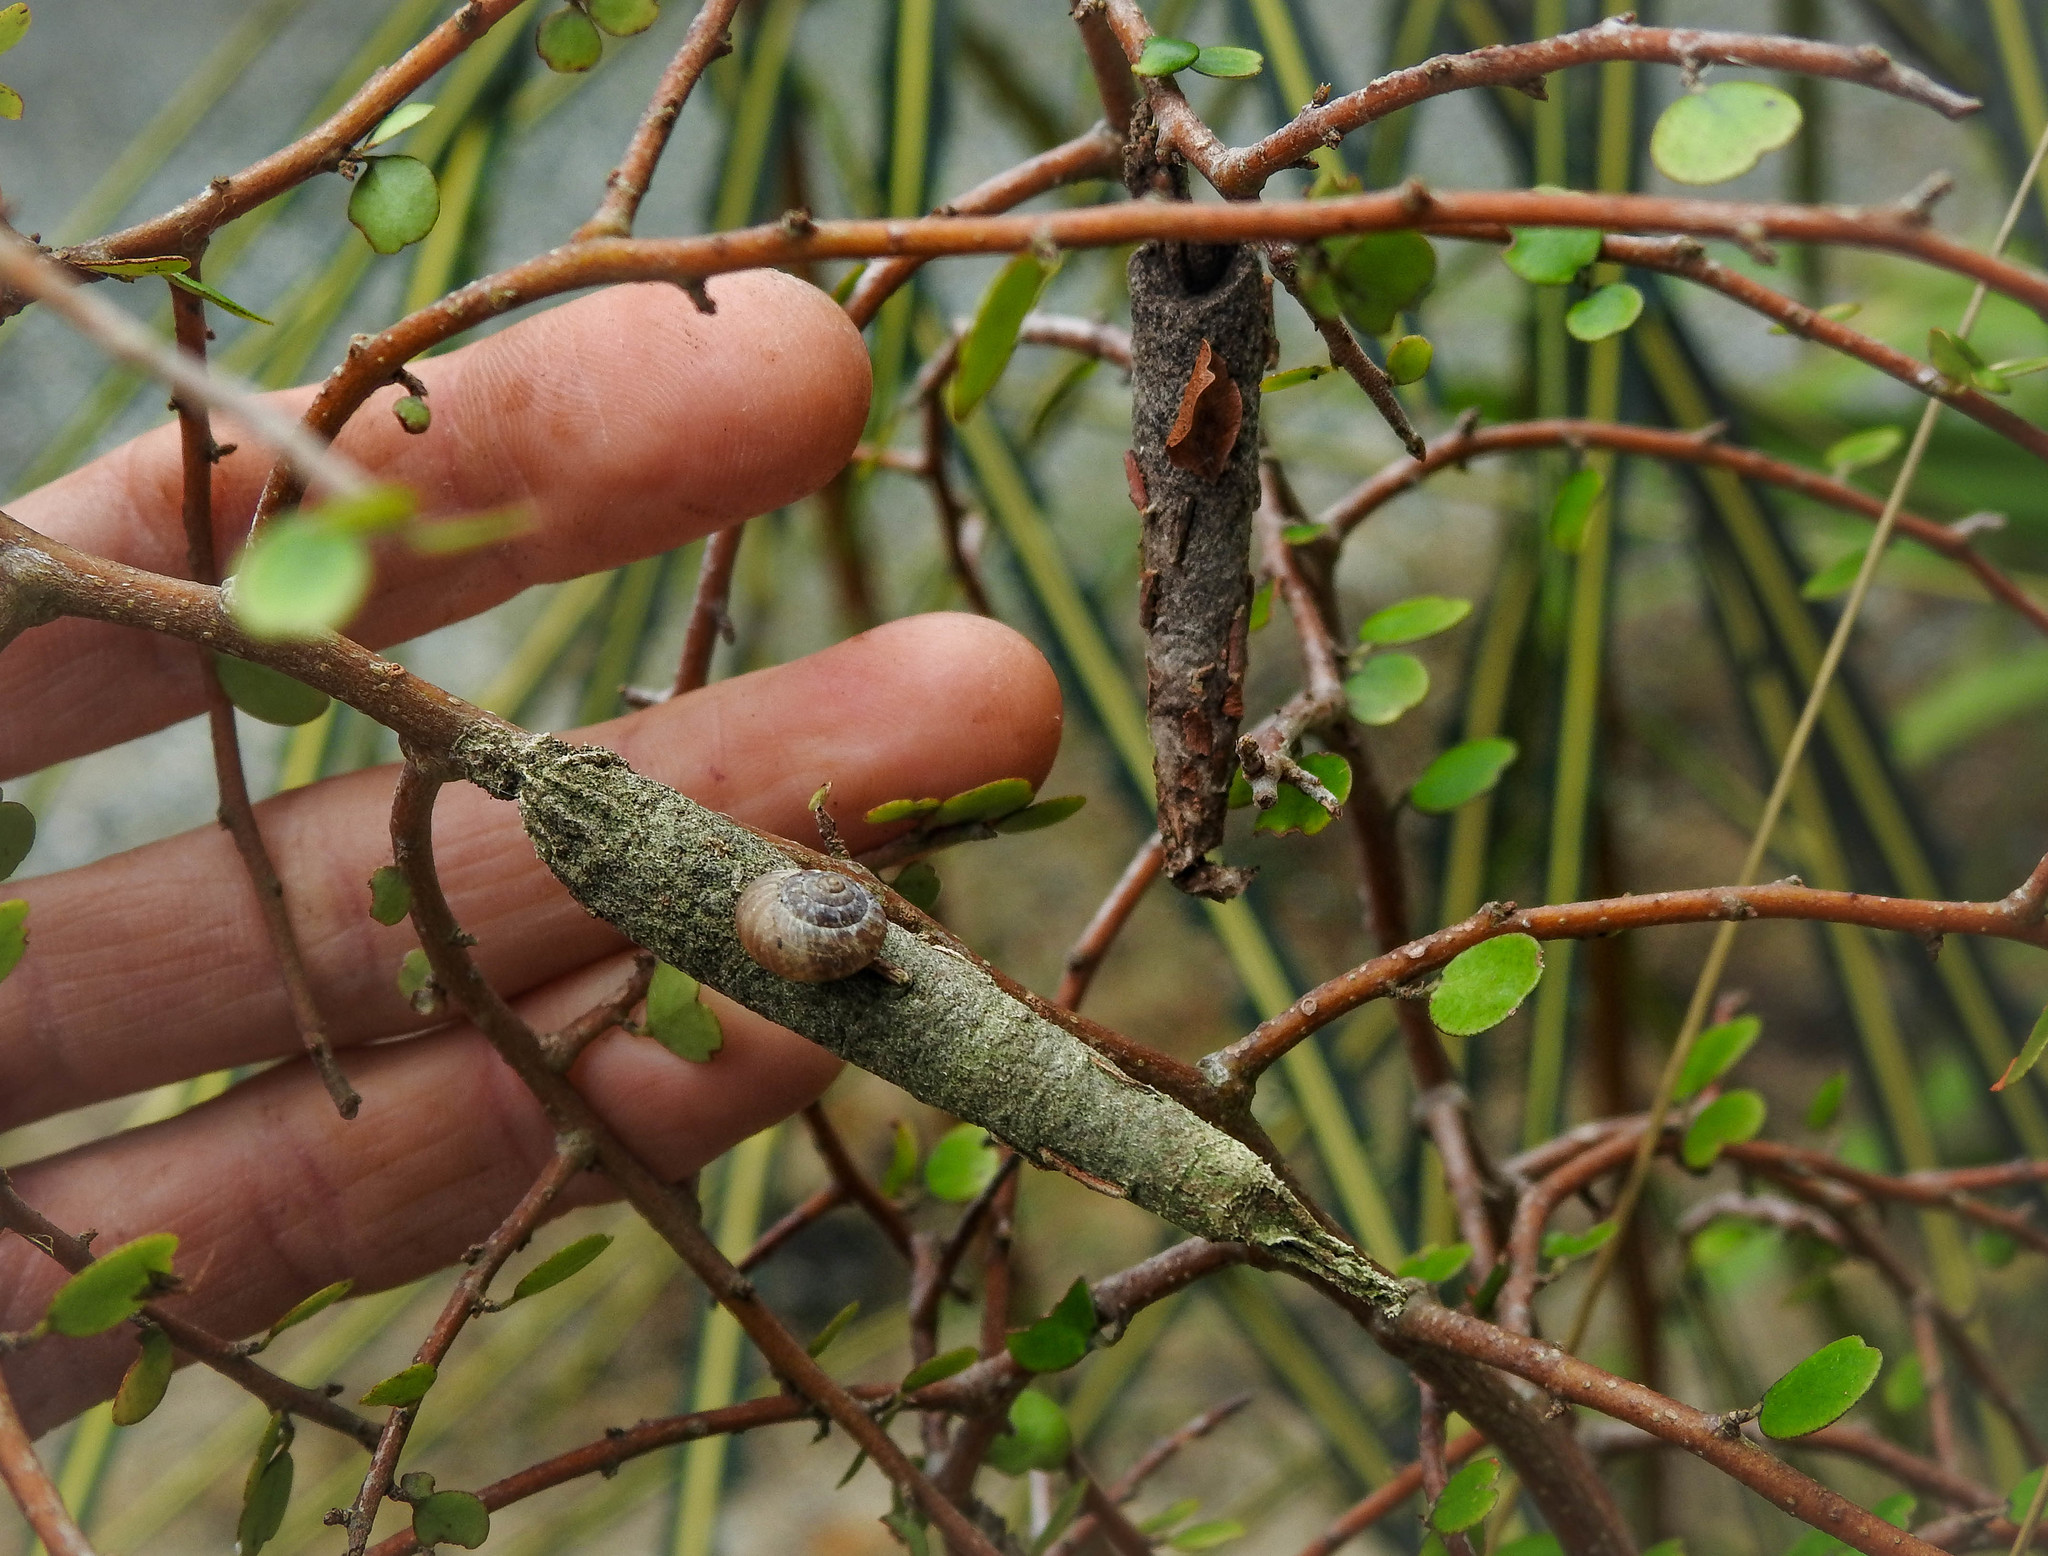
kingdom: Animalia
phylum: Arthropoda
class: Insecta
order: Lepidoptera
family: Psychidae
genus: Liothula
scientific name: Liothula omnivora
